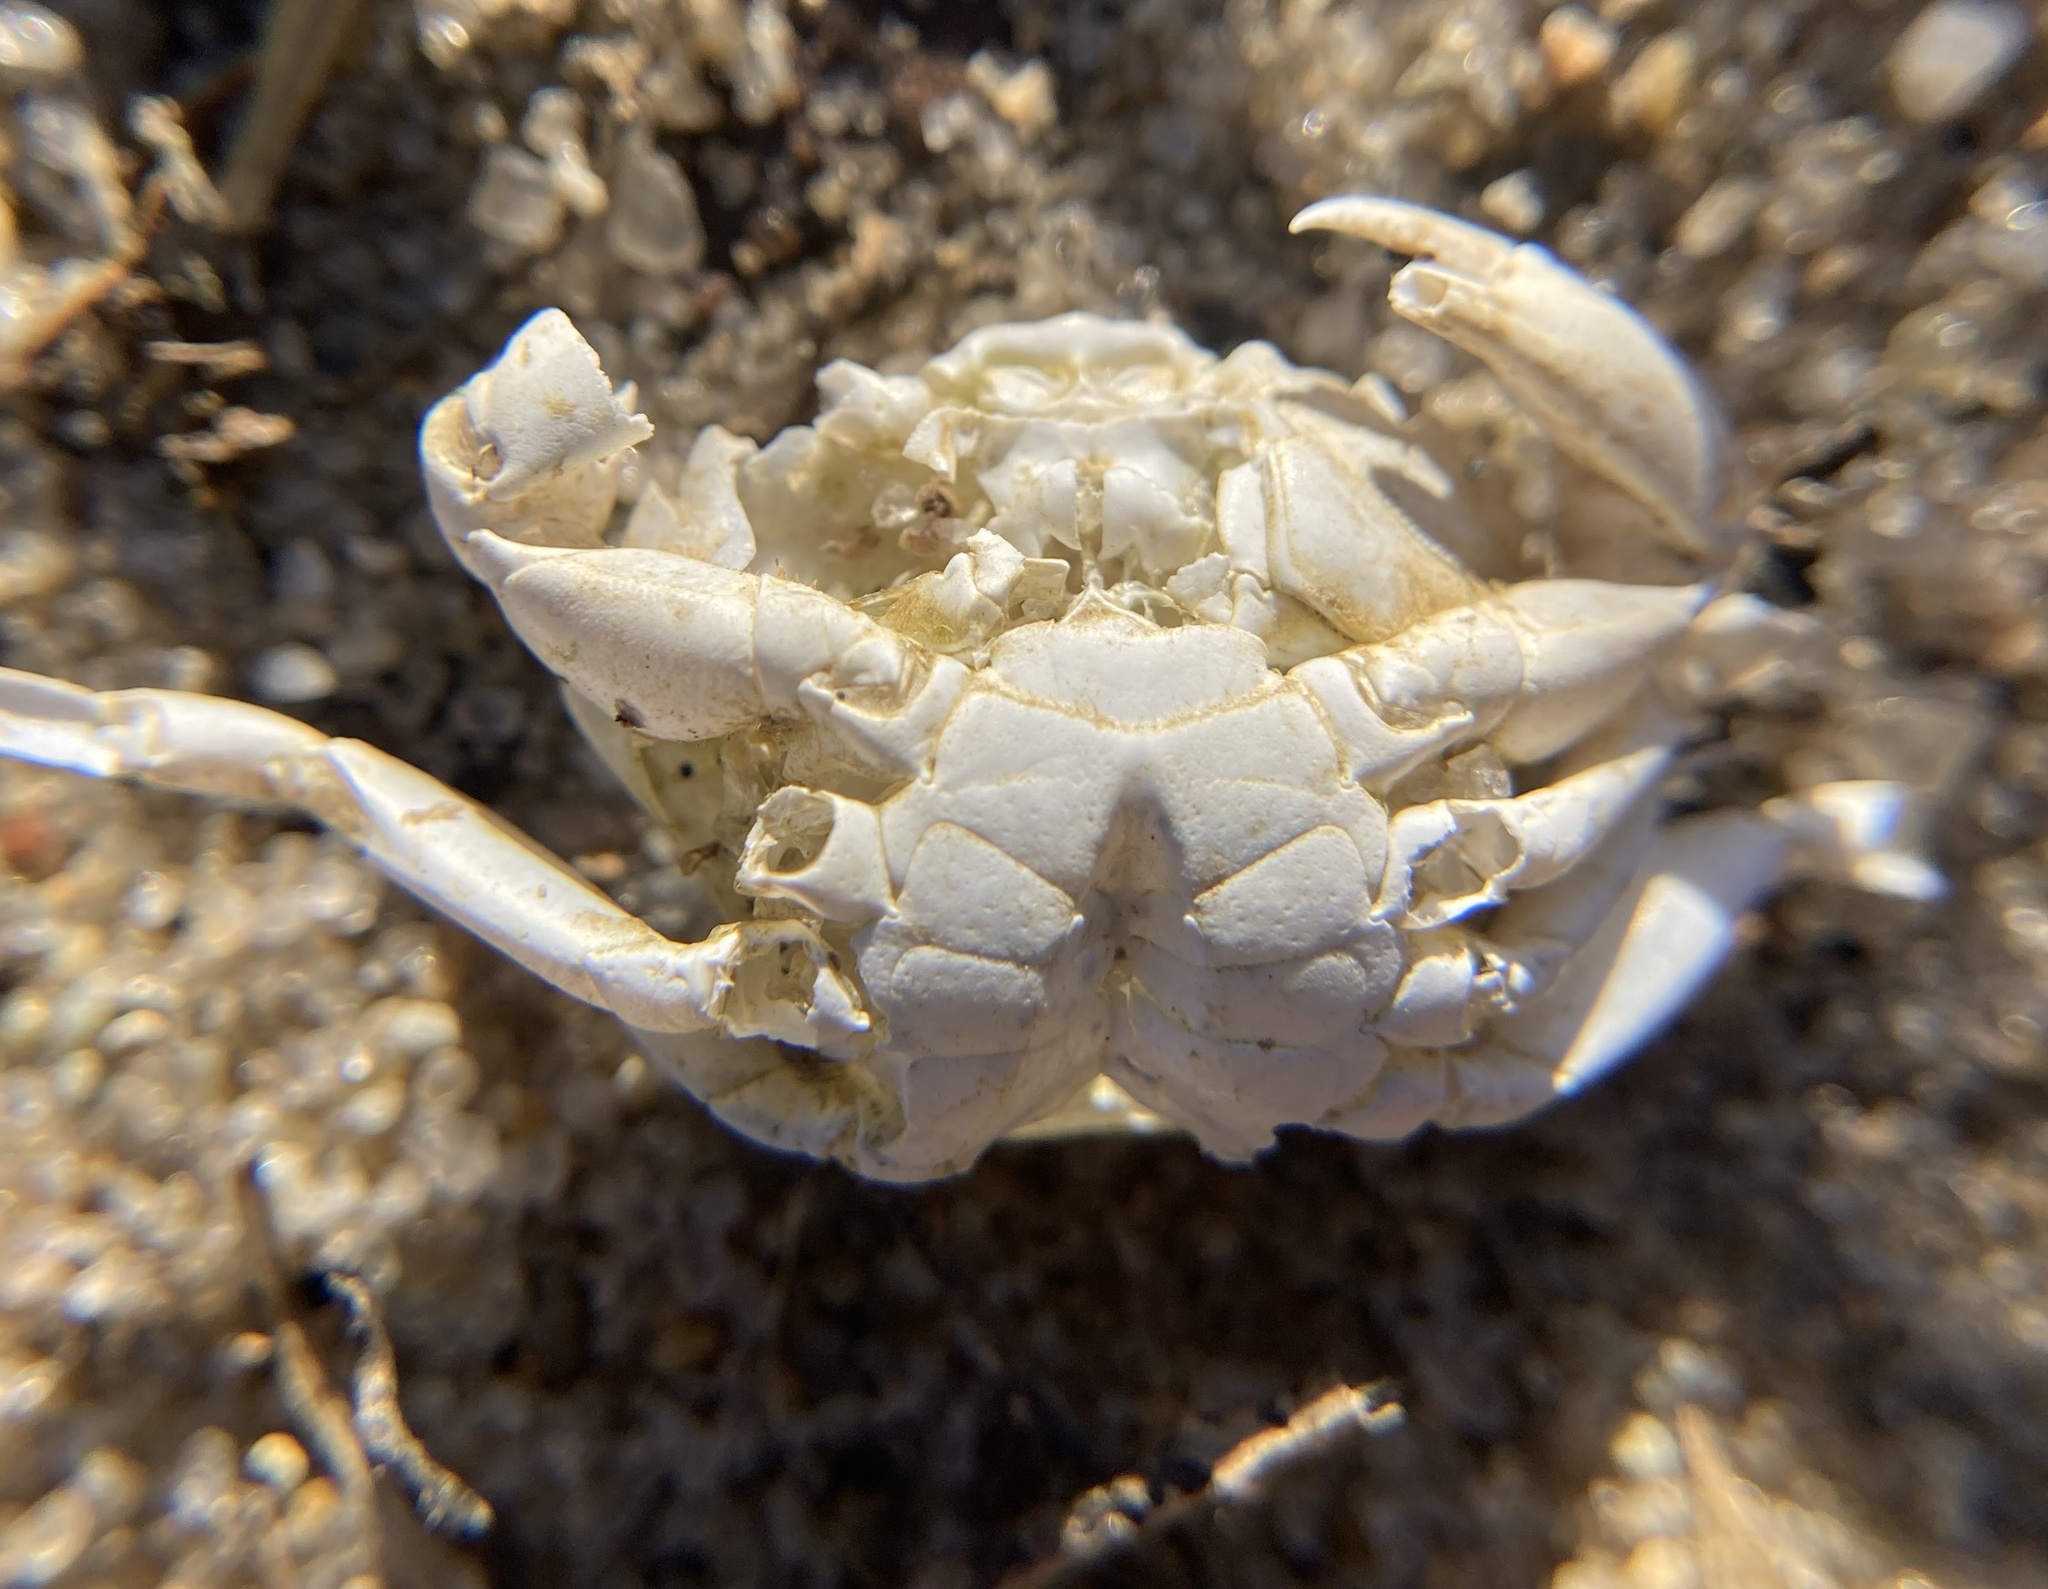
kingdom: Animalia
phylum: Arthropoda
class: Malacostraca
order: Decapoda
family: Carcinidae
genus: Carcinus
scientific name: Carcinus maenas
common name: European green crab
